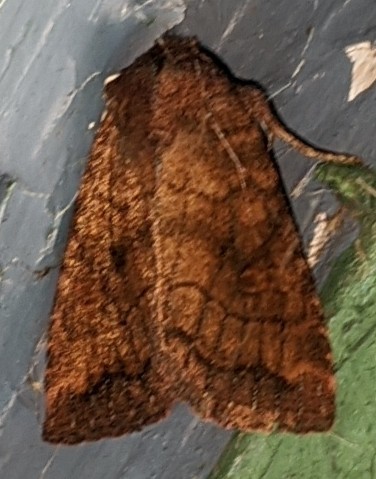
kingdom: Animalia
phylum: Arthropoda
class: Insecta
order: Lepidoptera
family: Noctuidae
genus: Tricholita
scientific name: Tricholita signata
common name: Signate quaker
